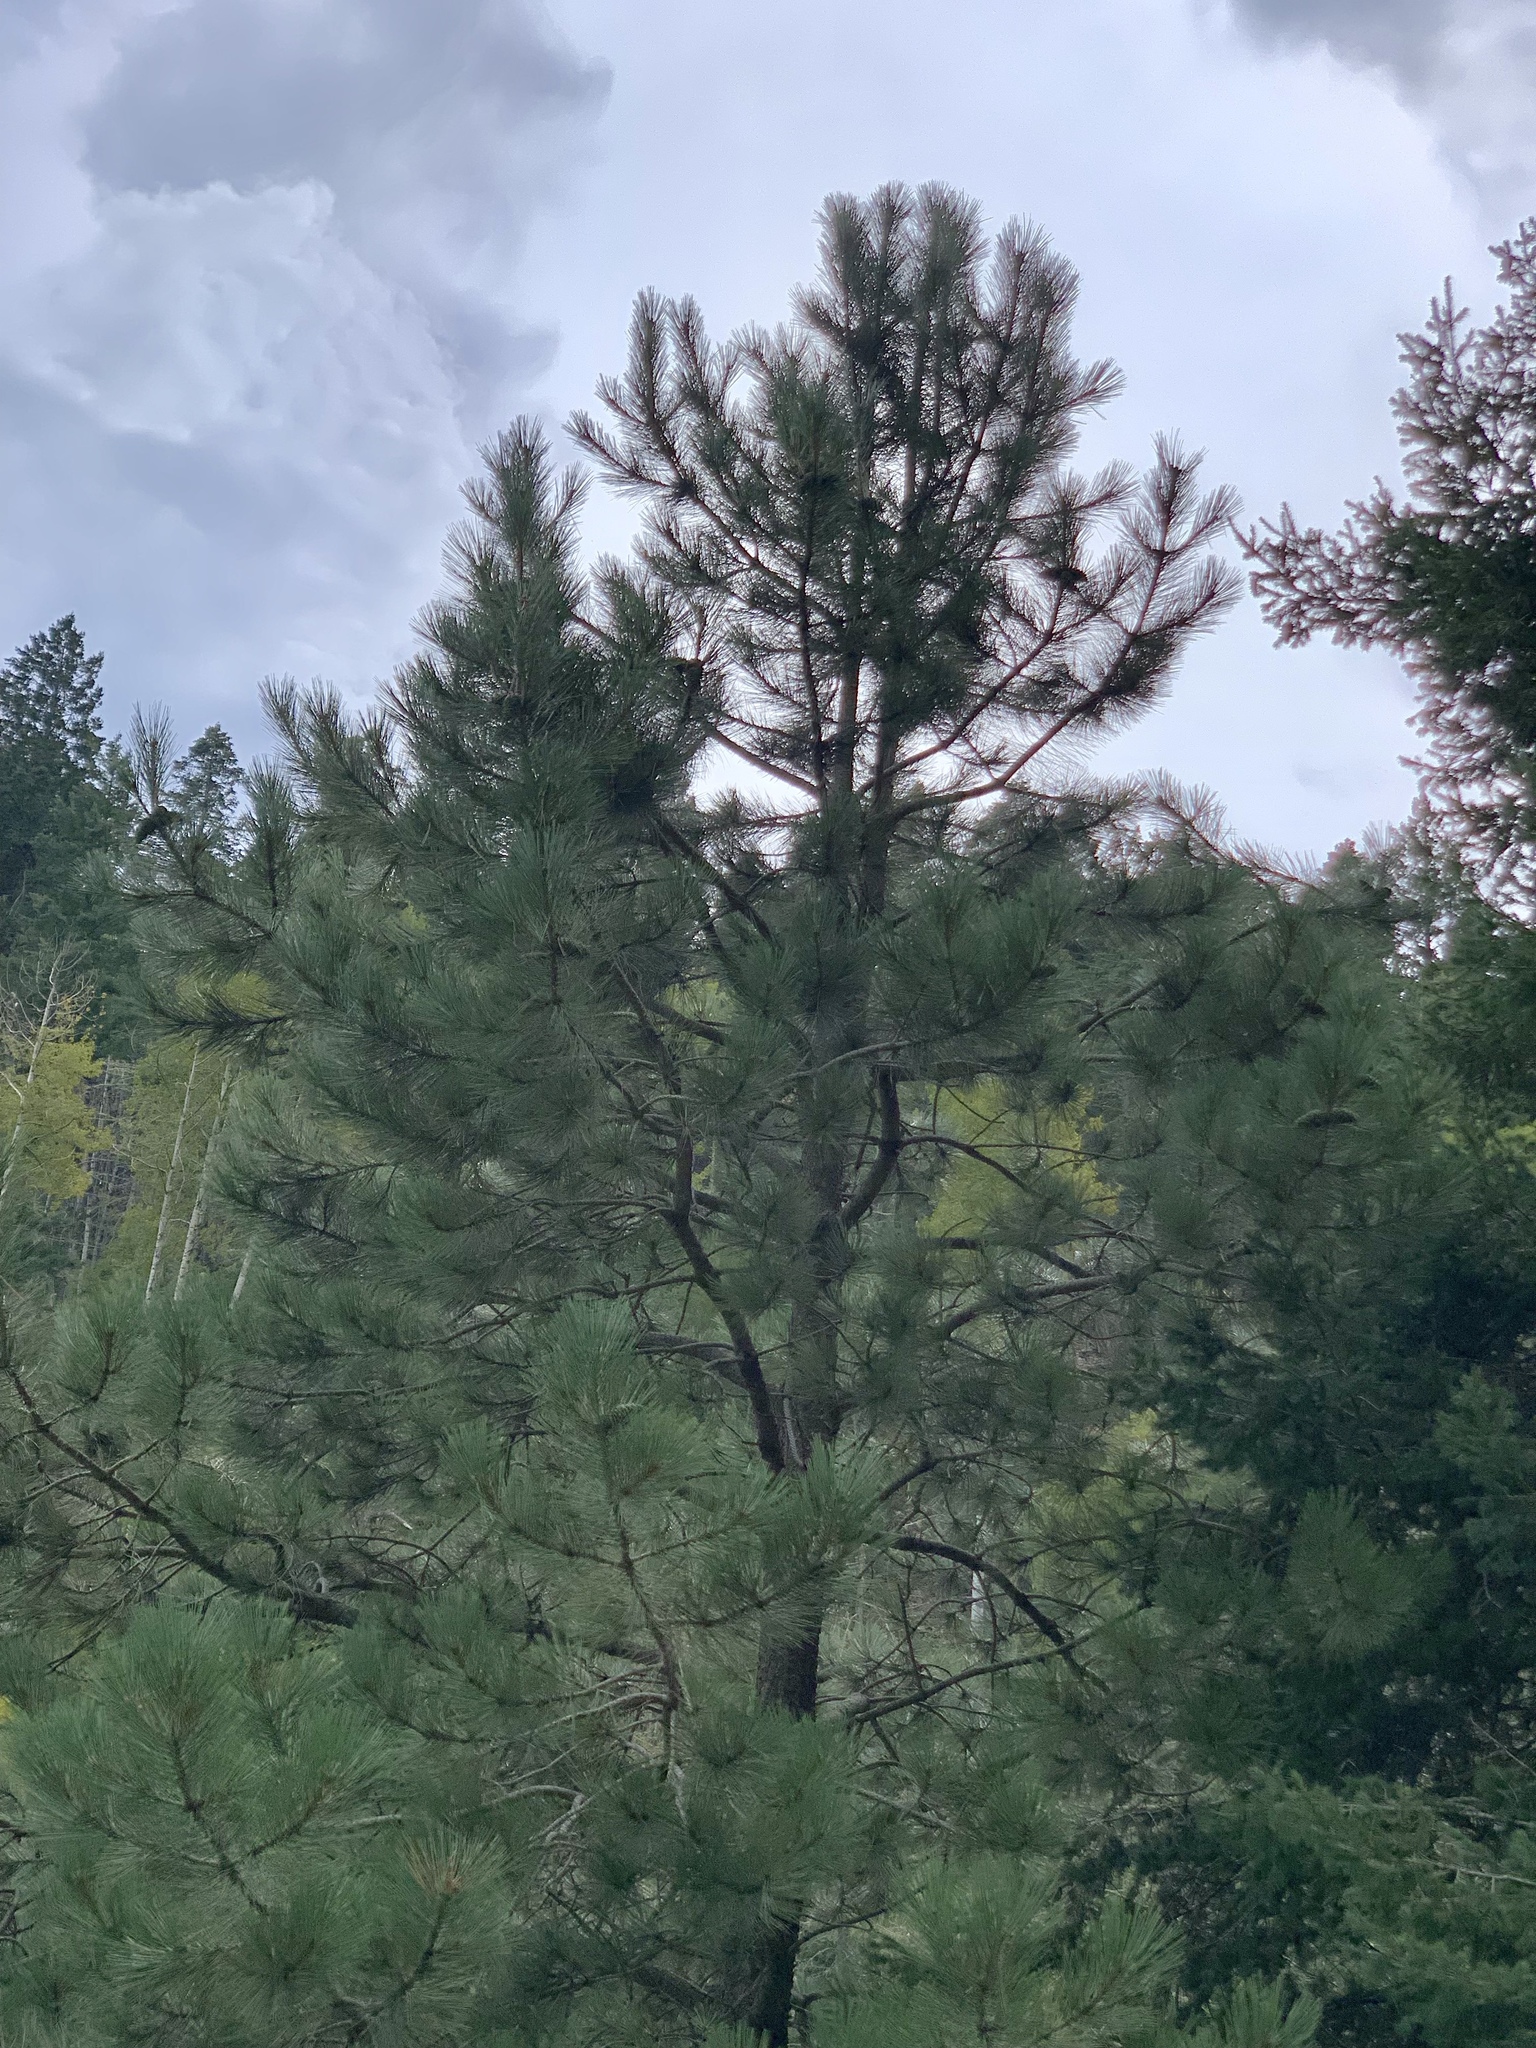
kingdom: Plantae
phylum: Tracheophyta
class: Pinopsida
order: Pinales
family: Pinaceae
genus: Pinus
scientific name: Pinus ponderosa
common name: Western yellow-pine
